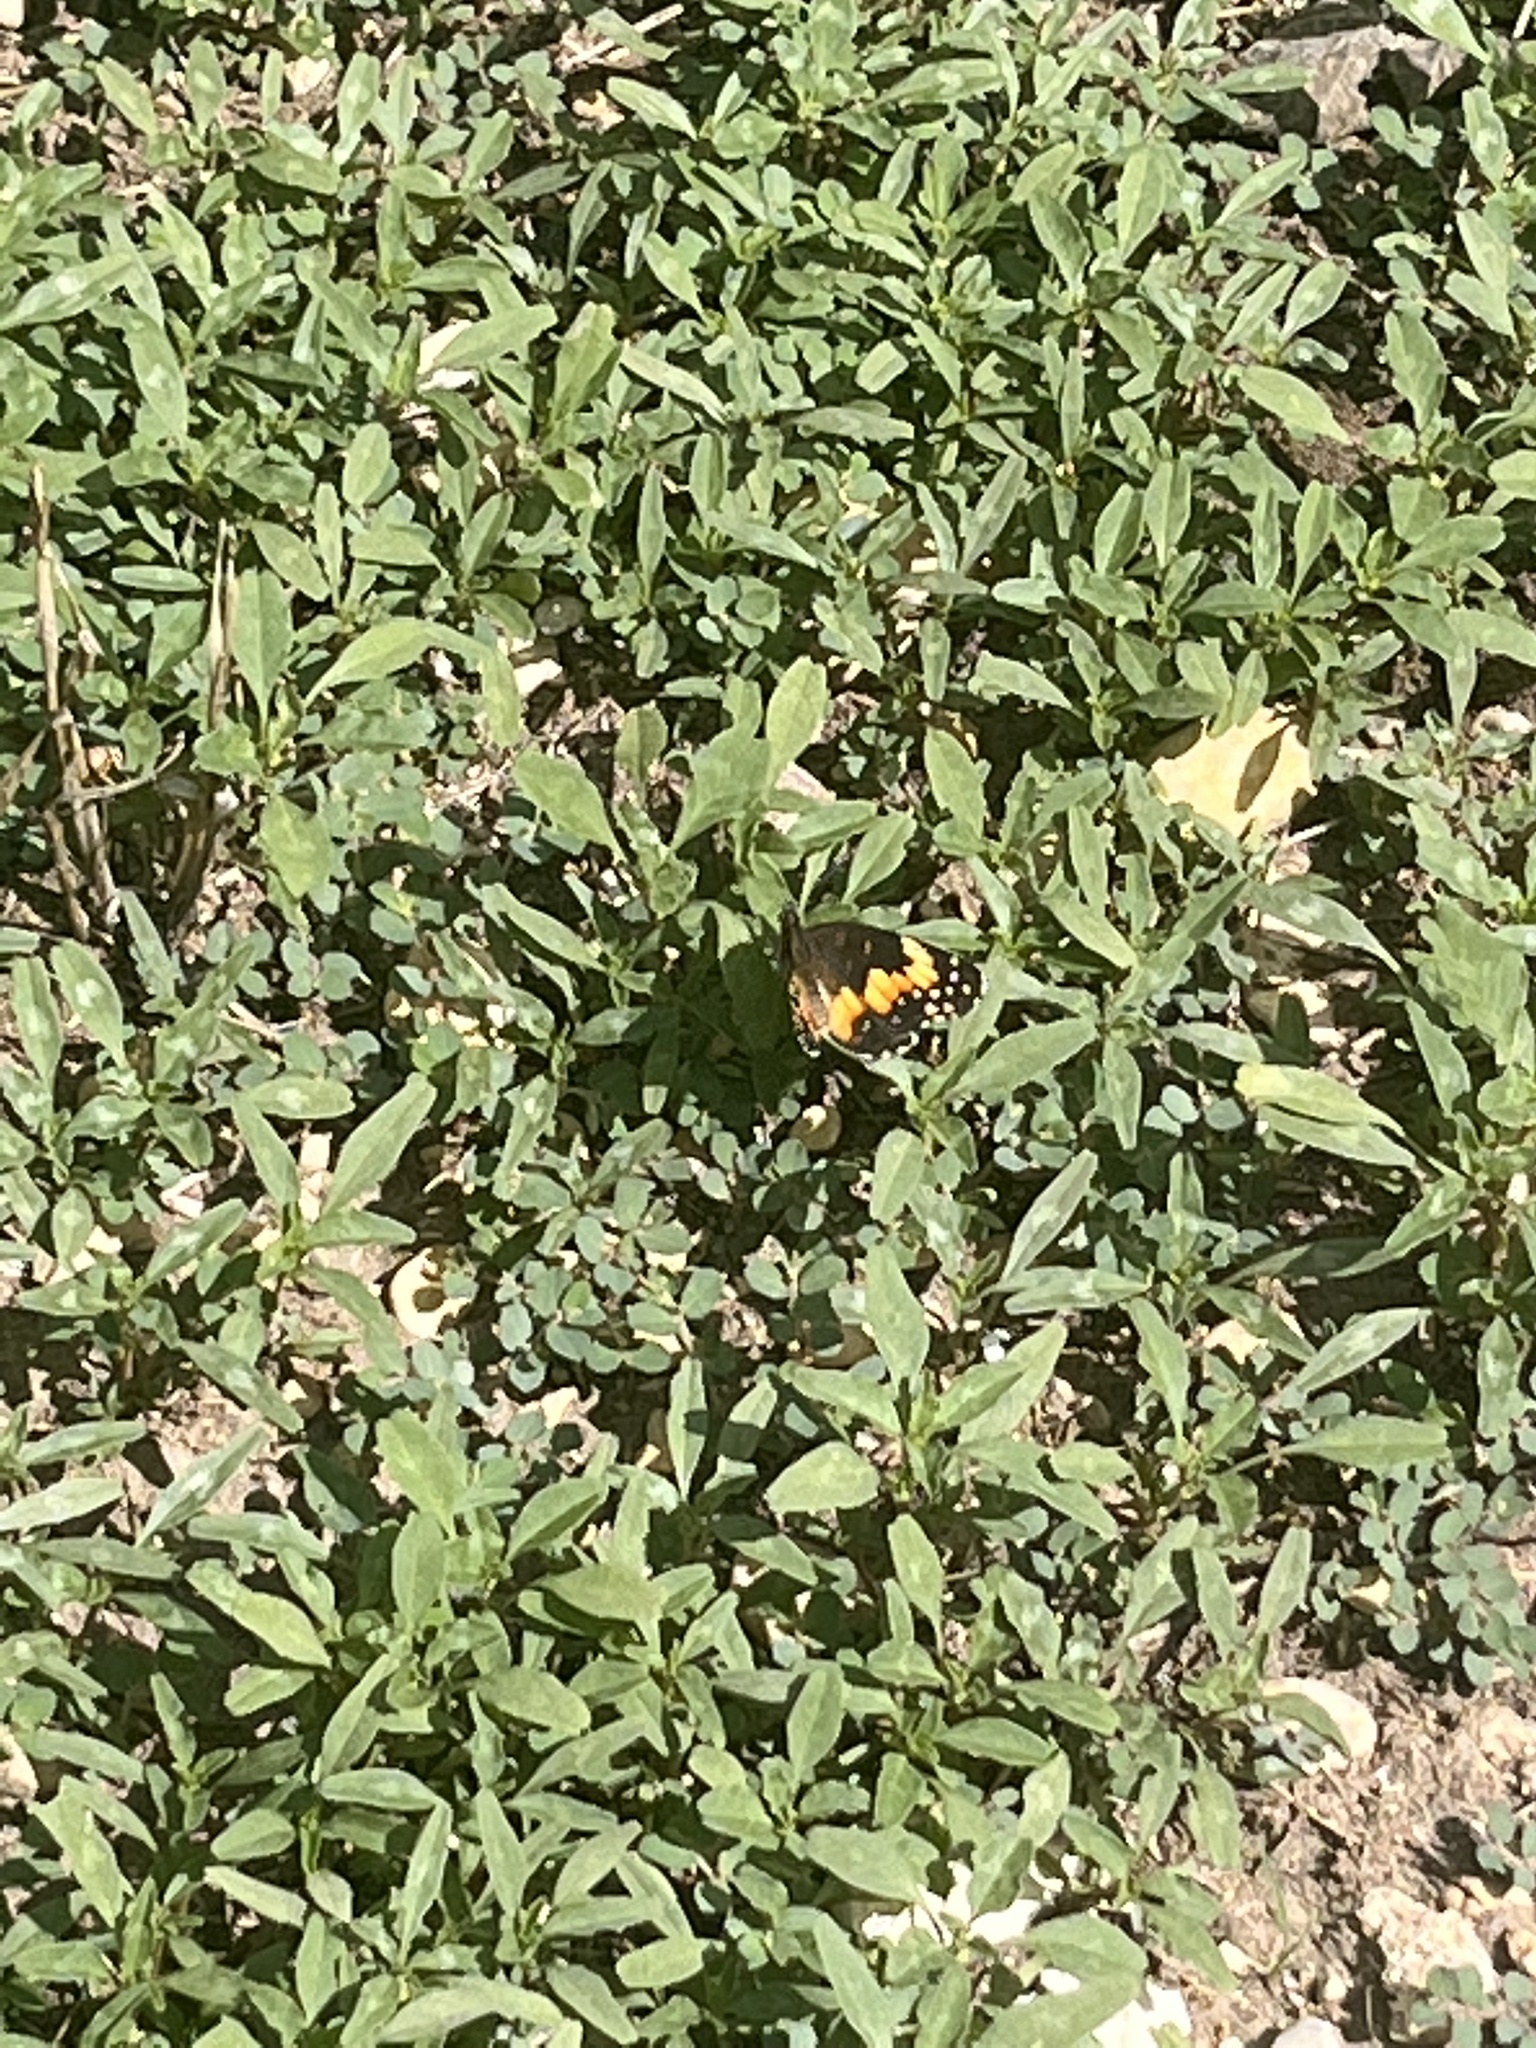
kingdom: Animalia
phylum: Arthropoda
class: Insecta
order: Lepidoptera
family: Nymphalidae
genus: Chlosyne
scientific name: Chlosyne lacinia
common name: Bordered patch
